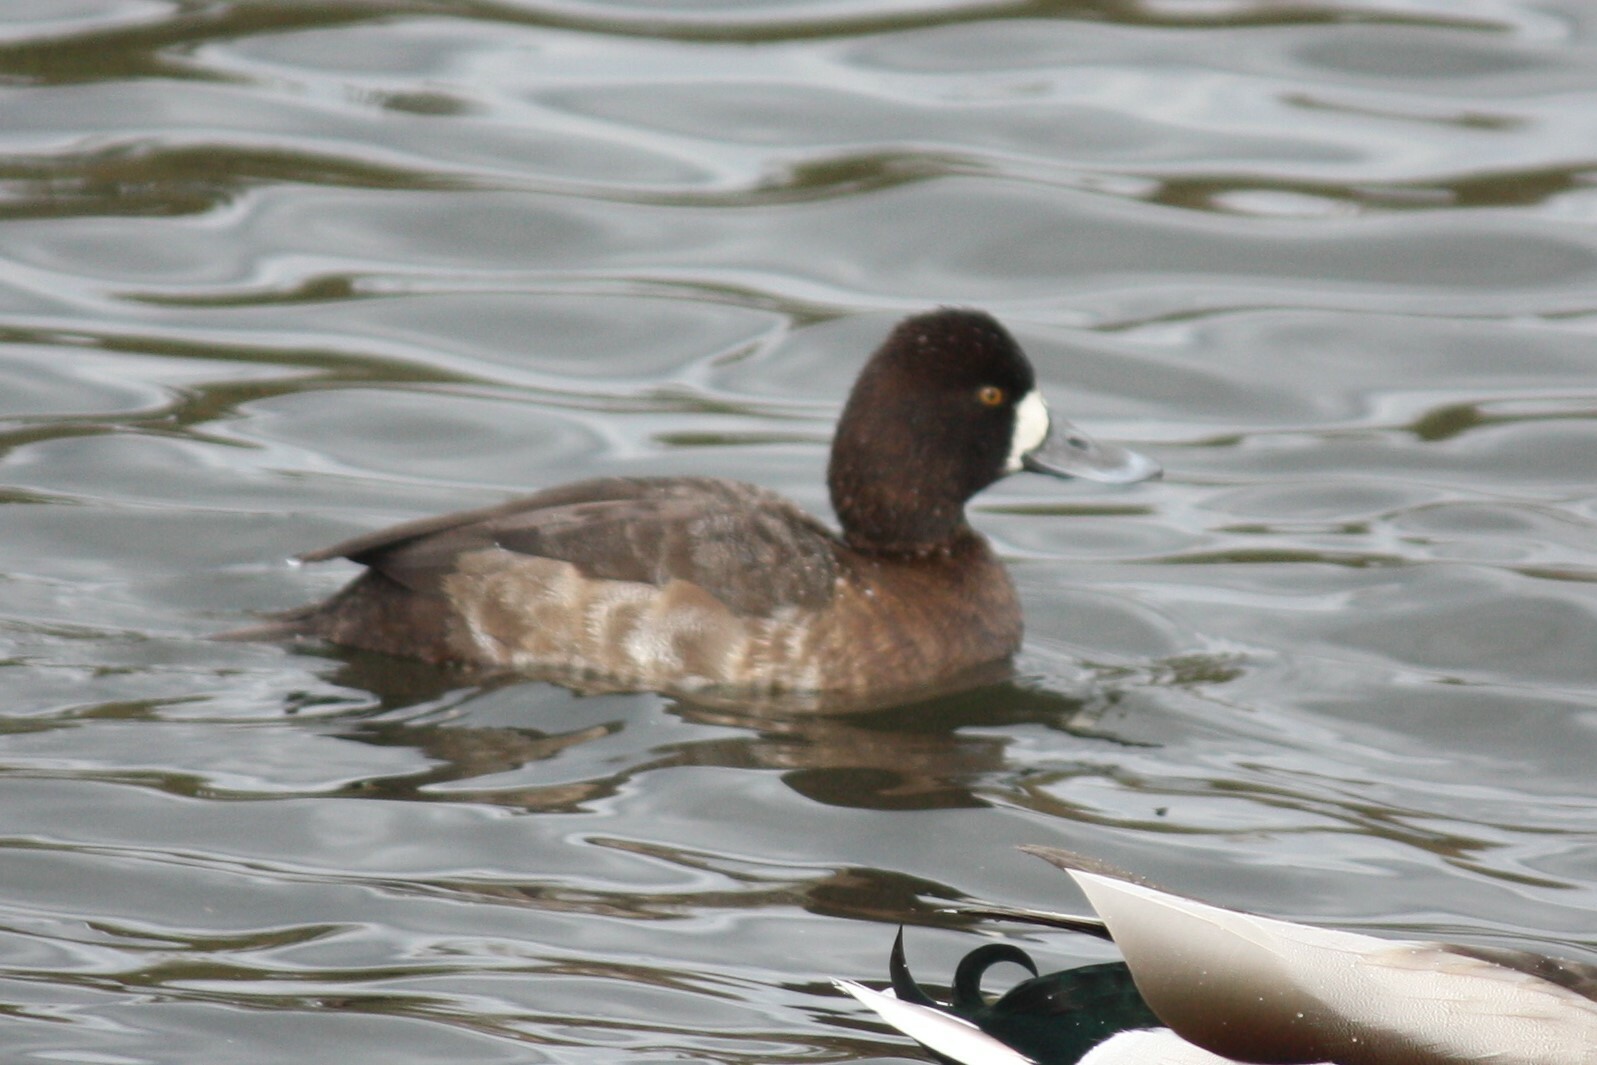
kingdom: Animalia
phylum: Chordata
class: Aves
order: Anseriformes
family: Anatidae
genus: Aythya
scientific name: Aythya affinis
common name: Lesser scaup
